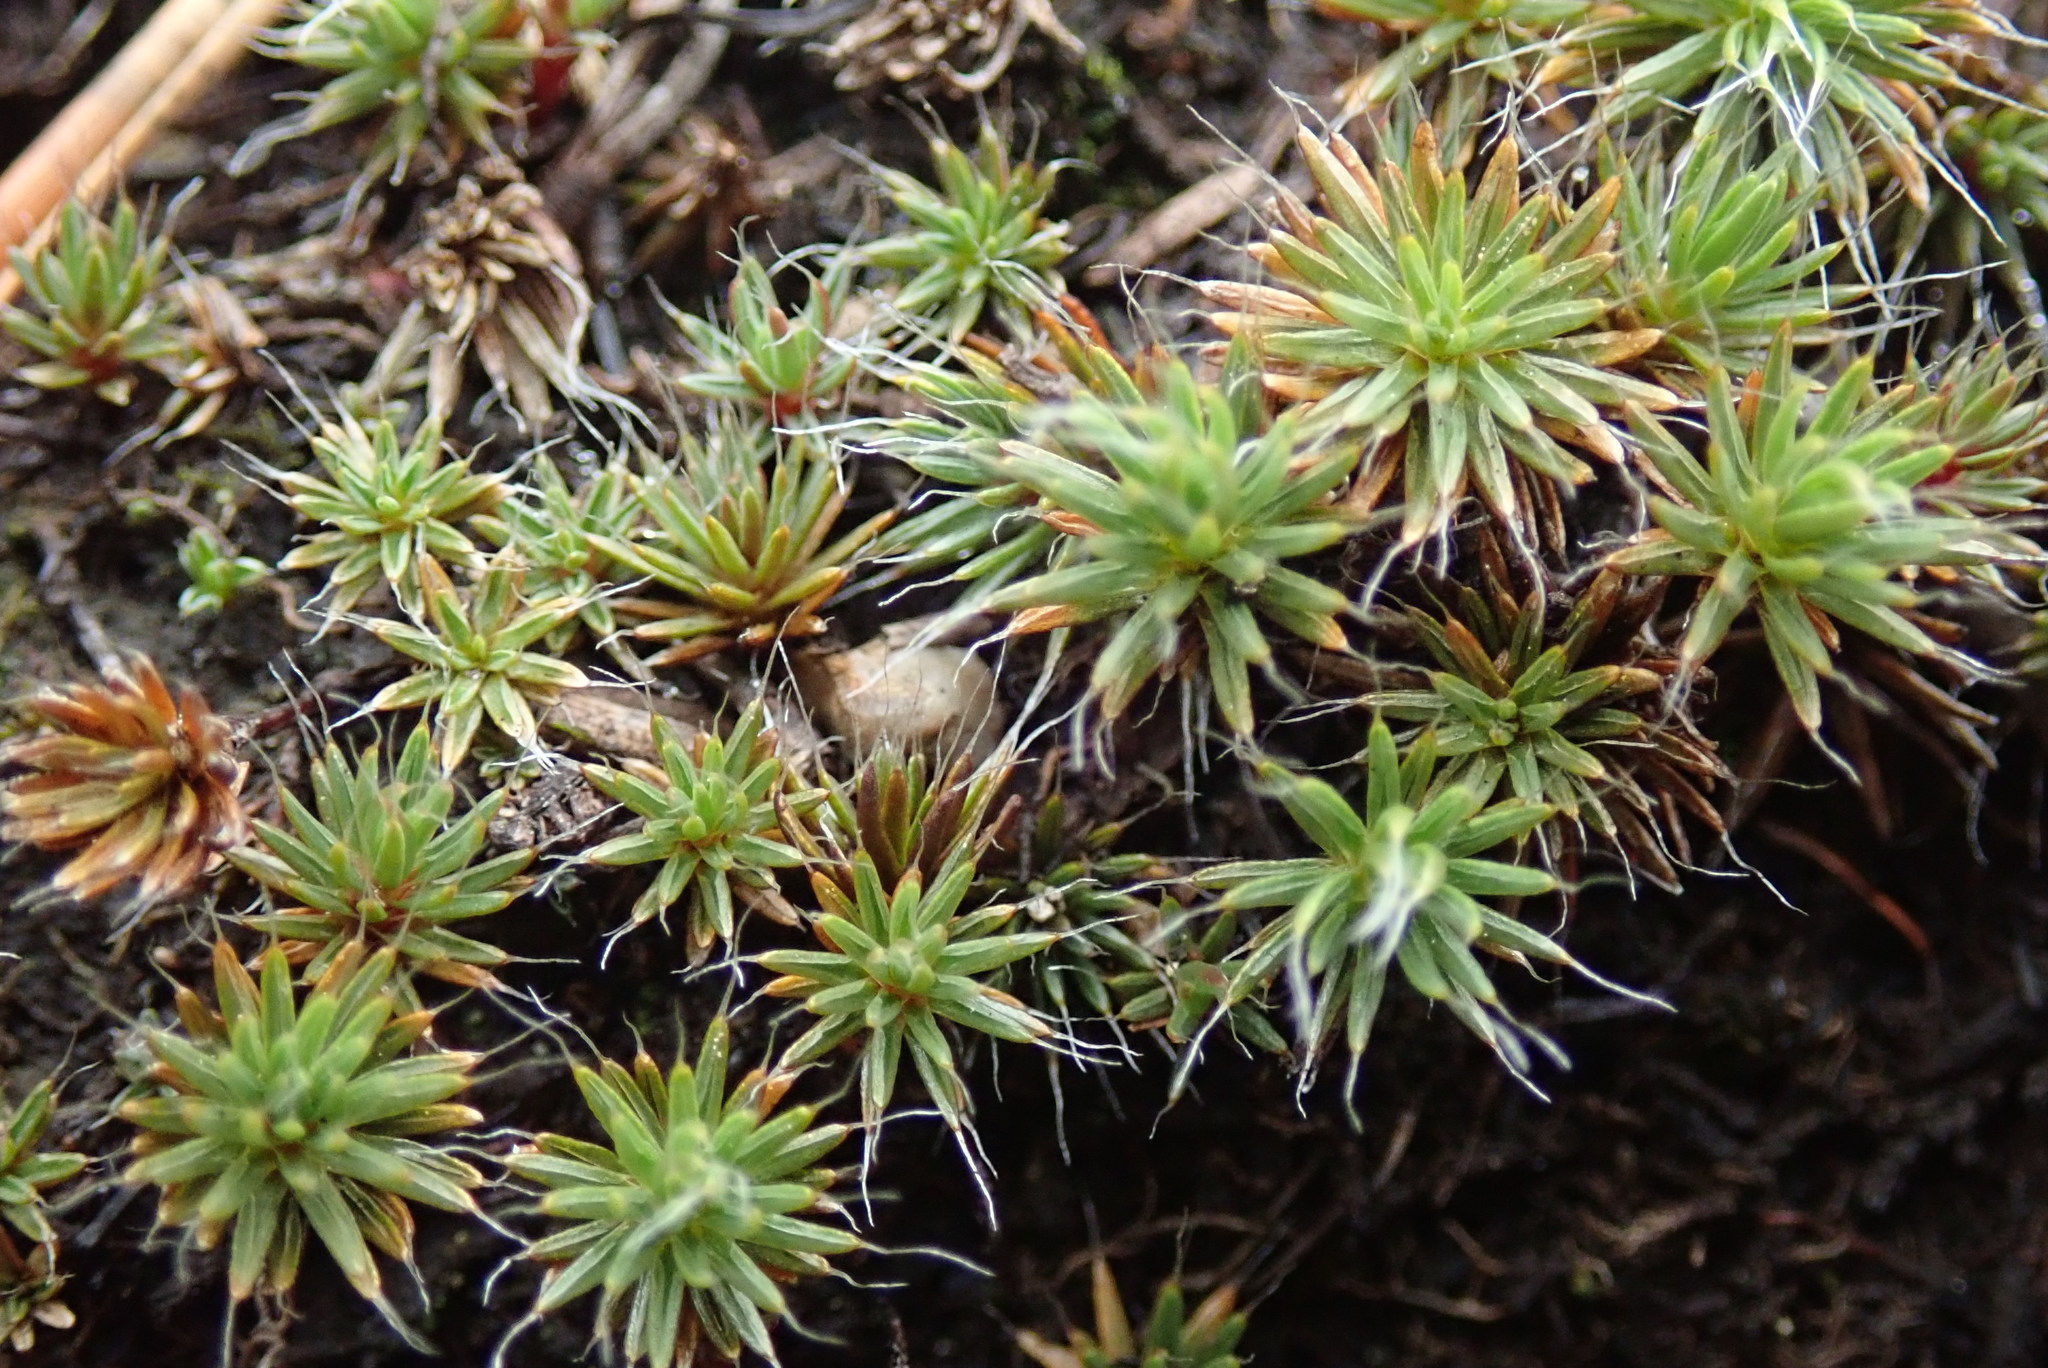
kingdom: Plantae
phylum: Bryophyta
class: Polytrichopsida
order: Polytrichales
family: Polytrichaceae
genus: Polytrichum
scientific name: Polytrichum piliferum
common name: Bristly haircap
